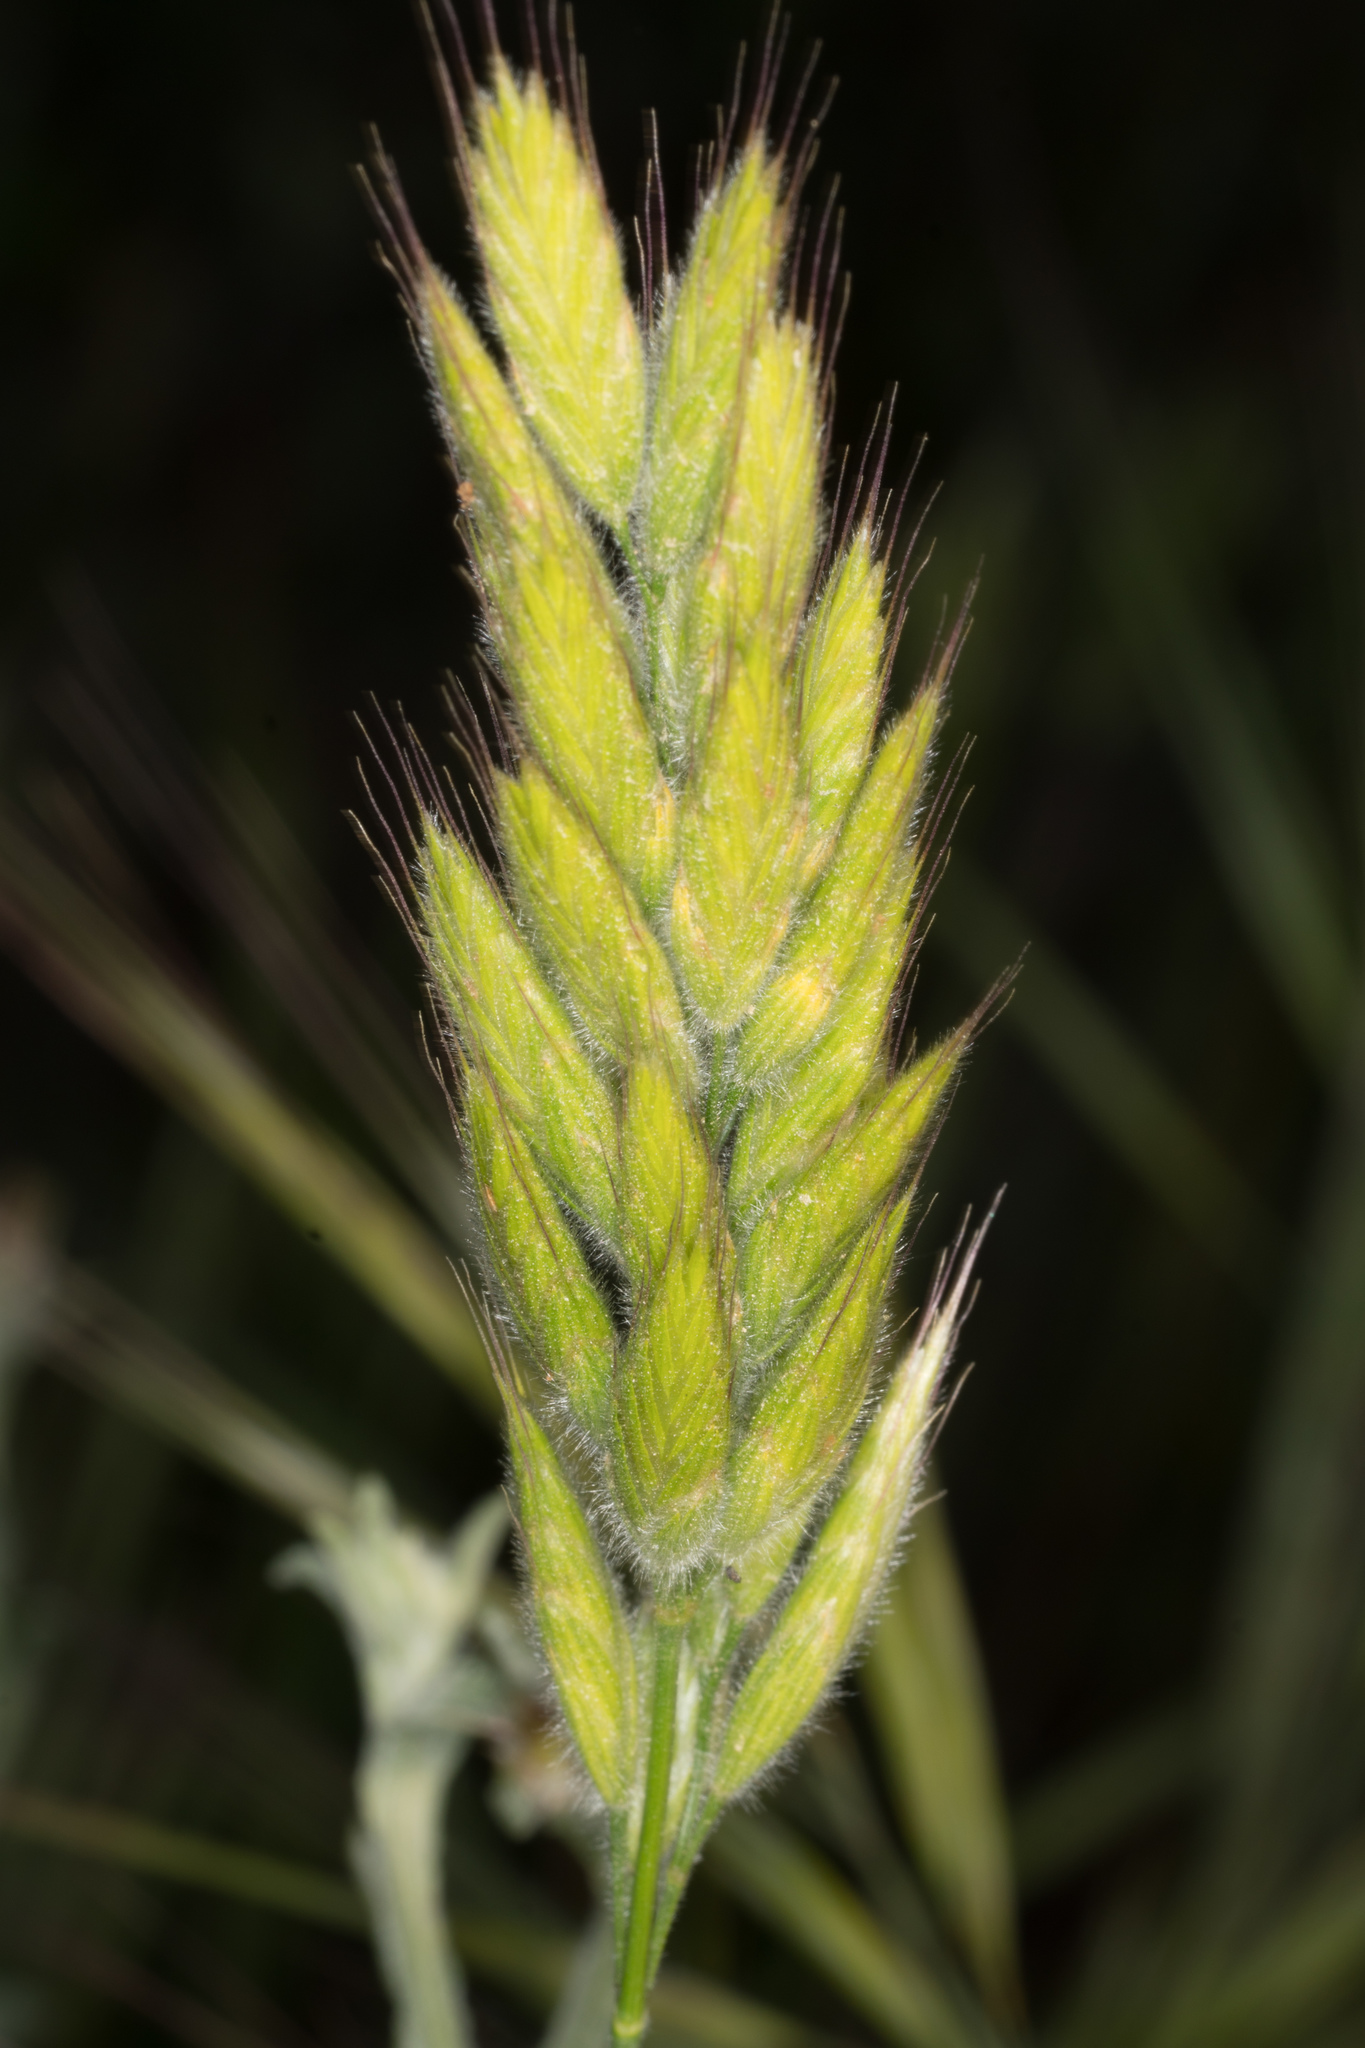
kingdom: Plantae
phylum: Tracheophyta
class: Liliopsida
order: Poales
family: Poaceae
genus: Bromus
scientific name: Bromus hordeaceus
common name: Soft brome
